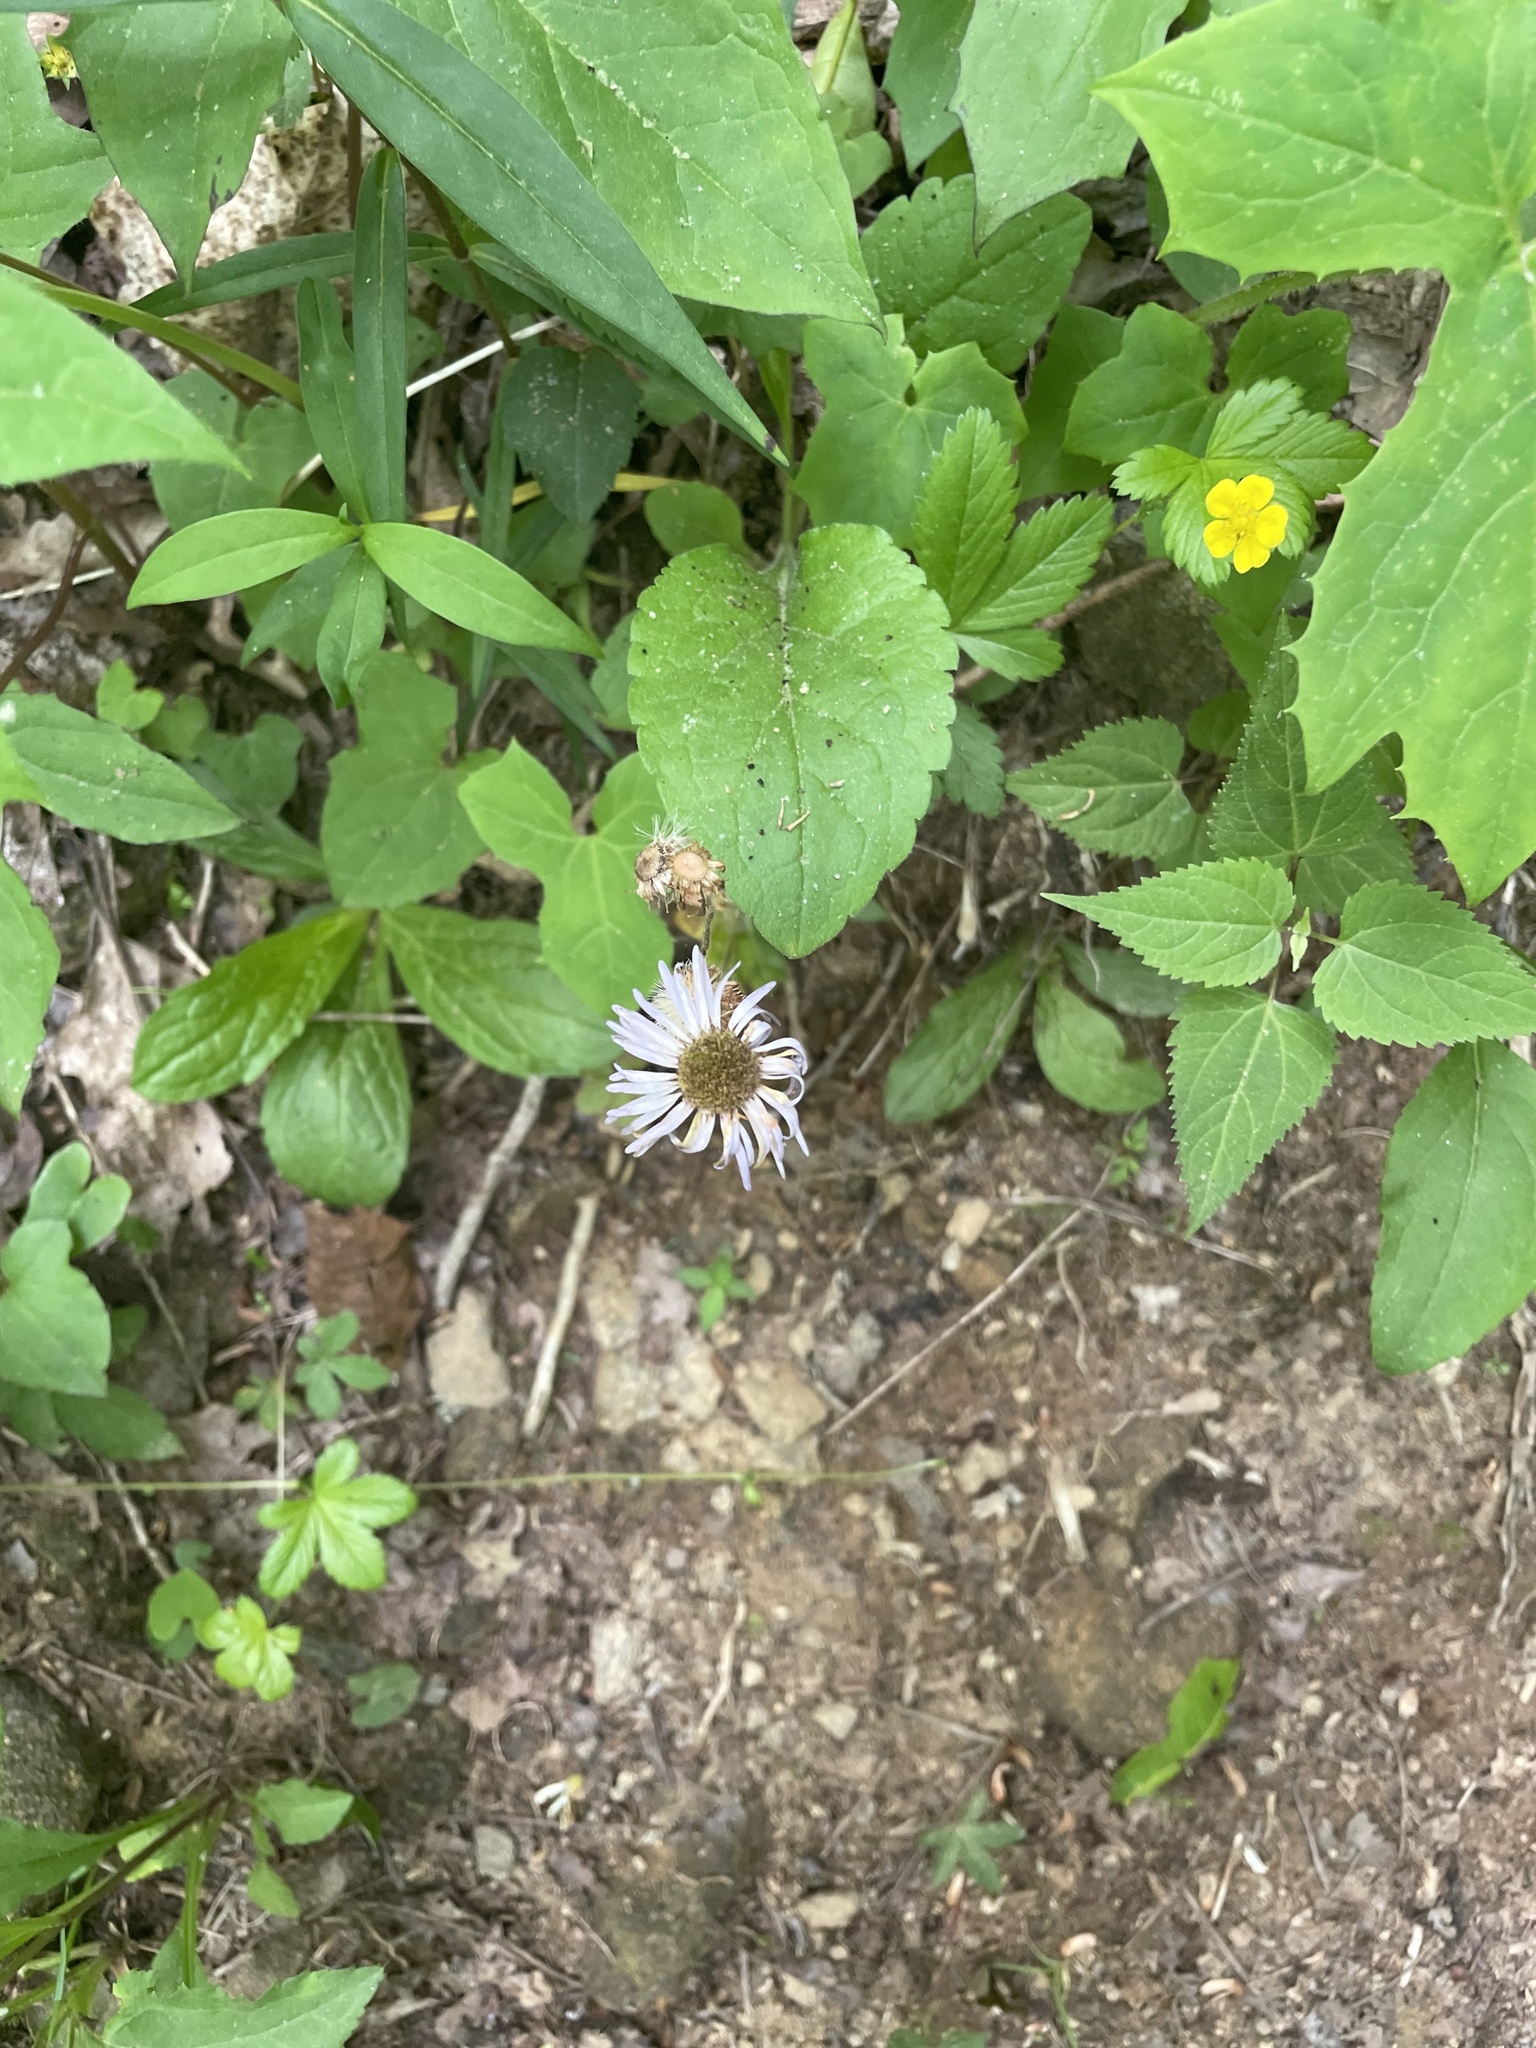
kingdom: Plantae
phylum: Tracheophyta
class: Magnoliopsida
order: Asterales
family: Asteraceae
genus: Erigeron
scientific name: Erigeron pulchellus
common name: Hairy fleabane
